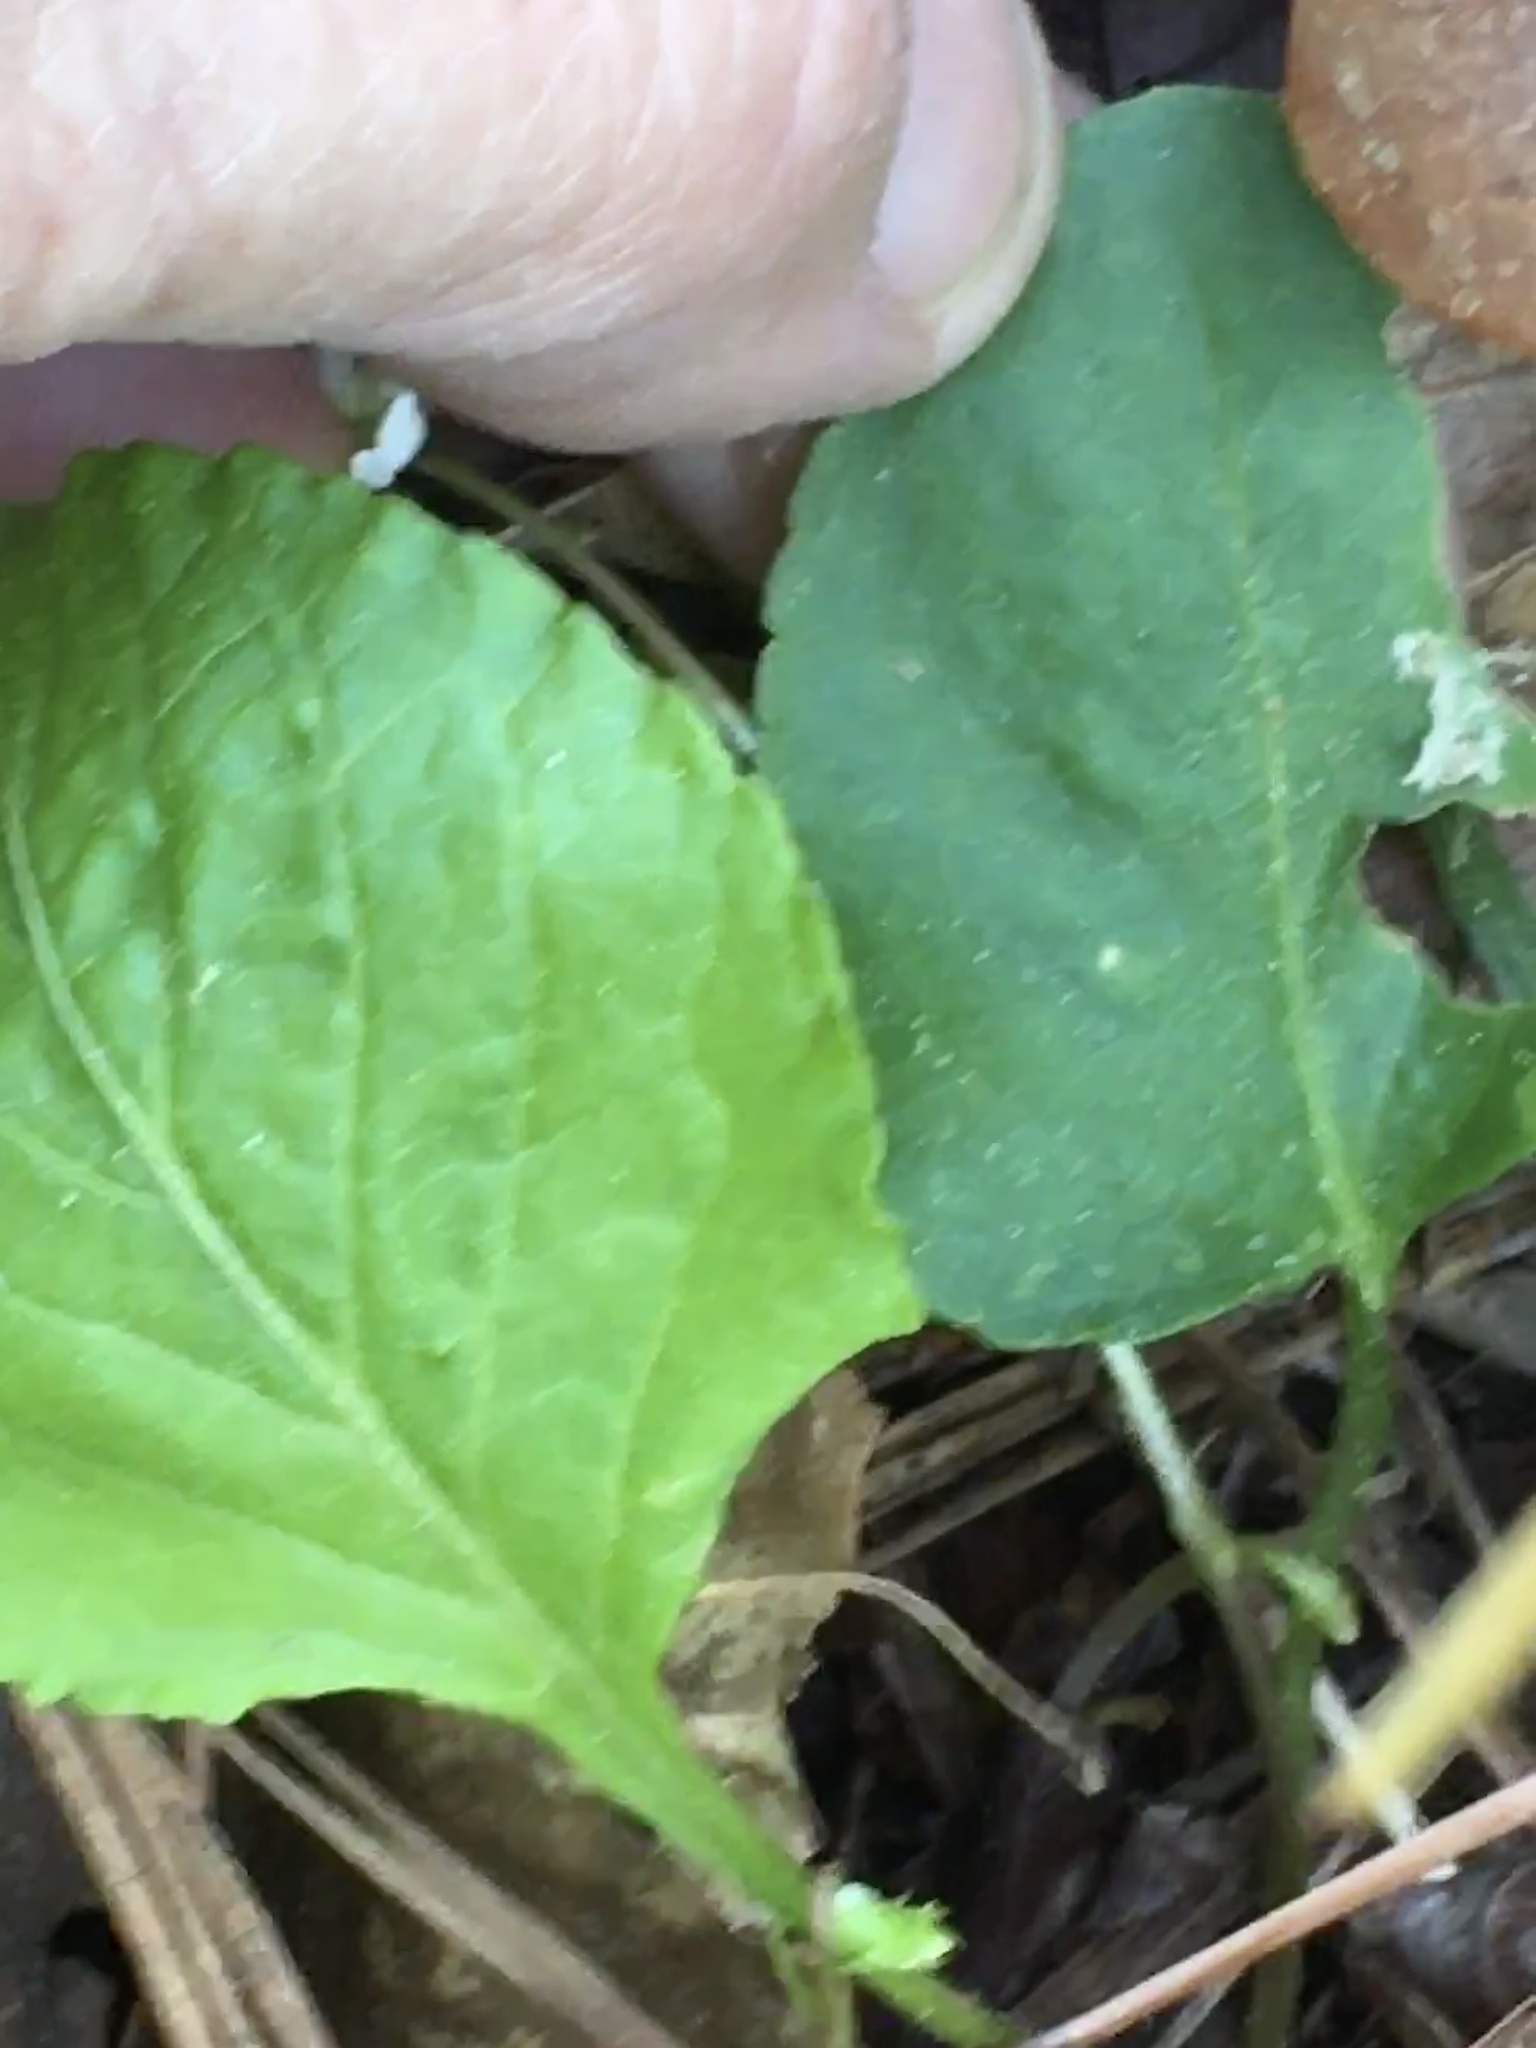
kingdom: Plantae
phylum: Tracheophyta
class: Magnoliopsida
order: Malpighiales
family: Violaceae
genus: Viola
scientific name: Viola primulifolia
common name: Primrose-leaf violet
